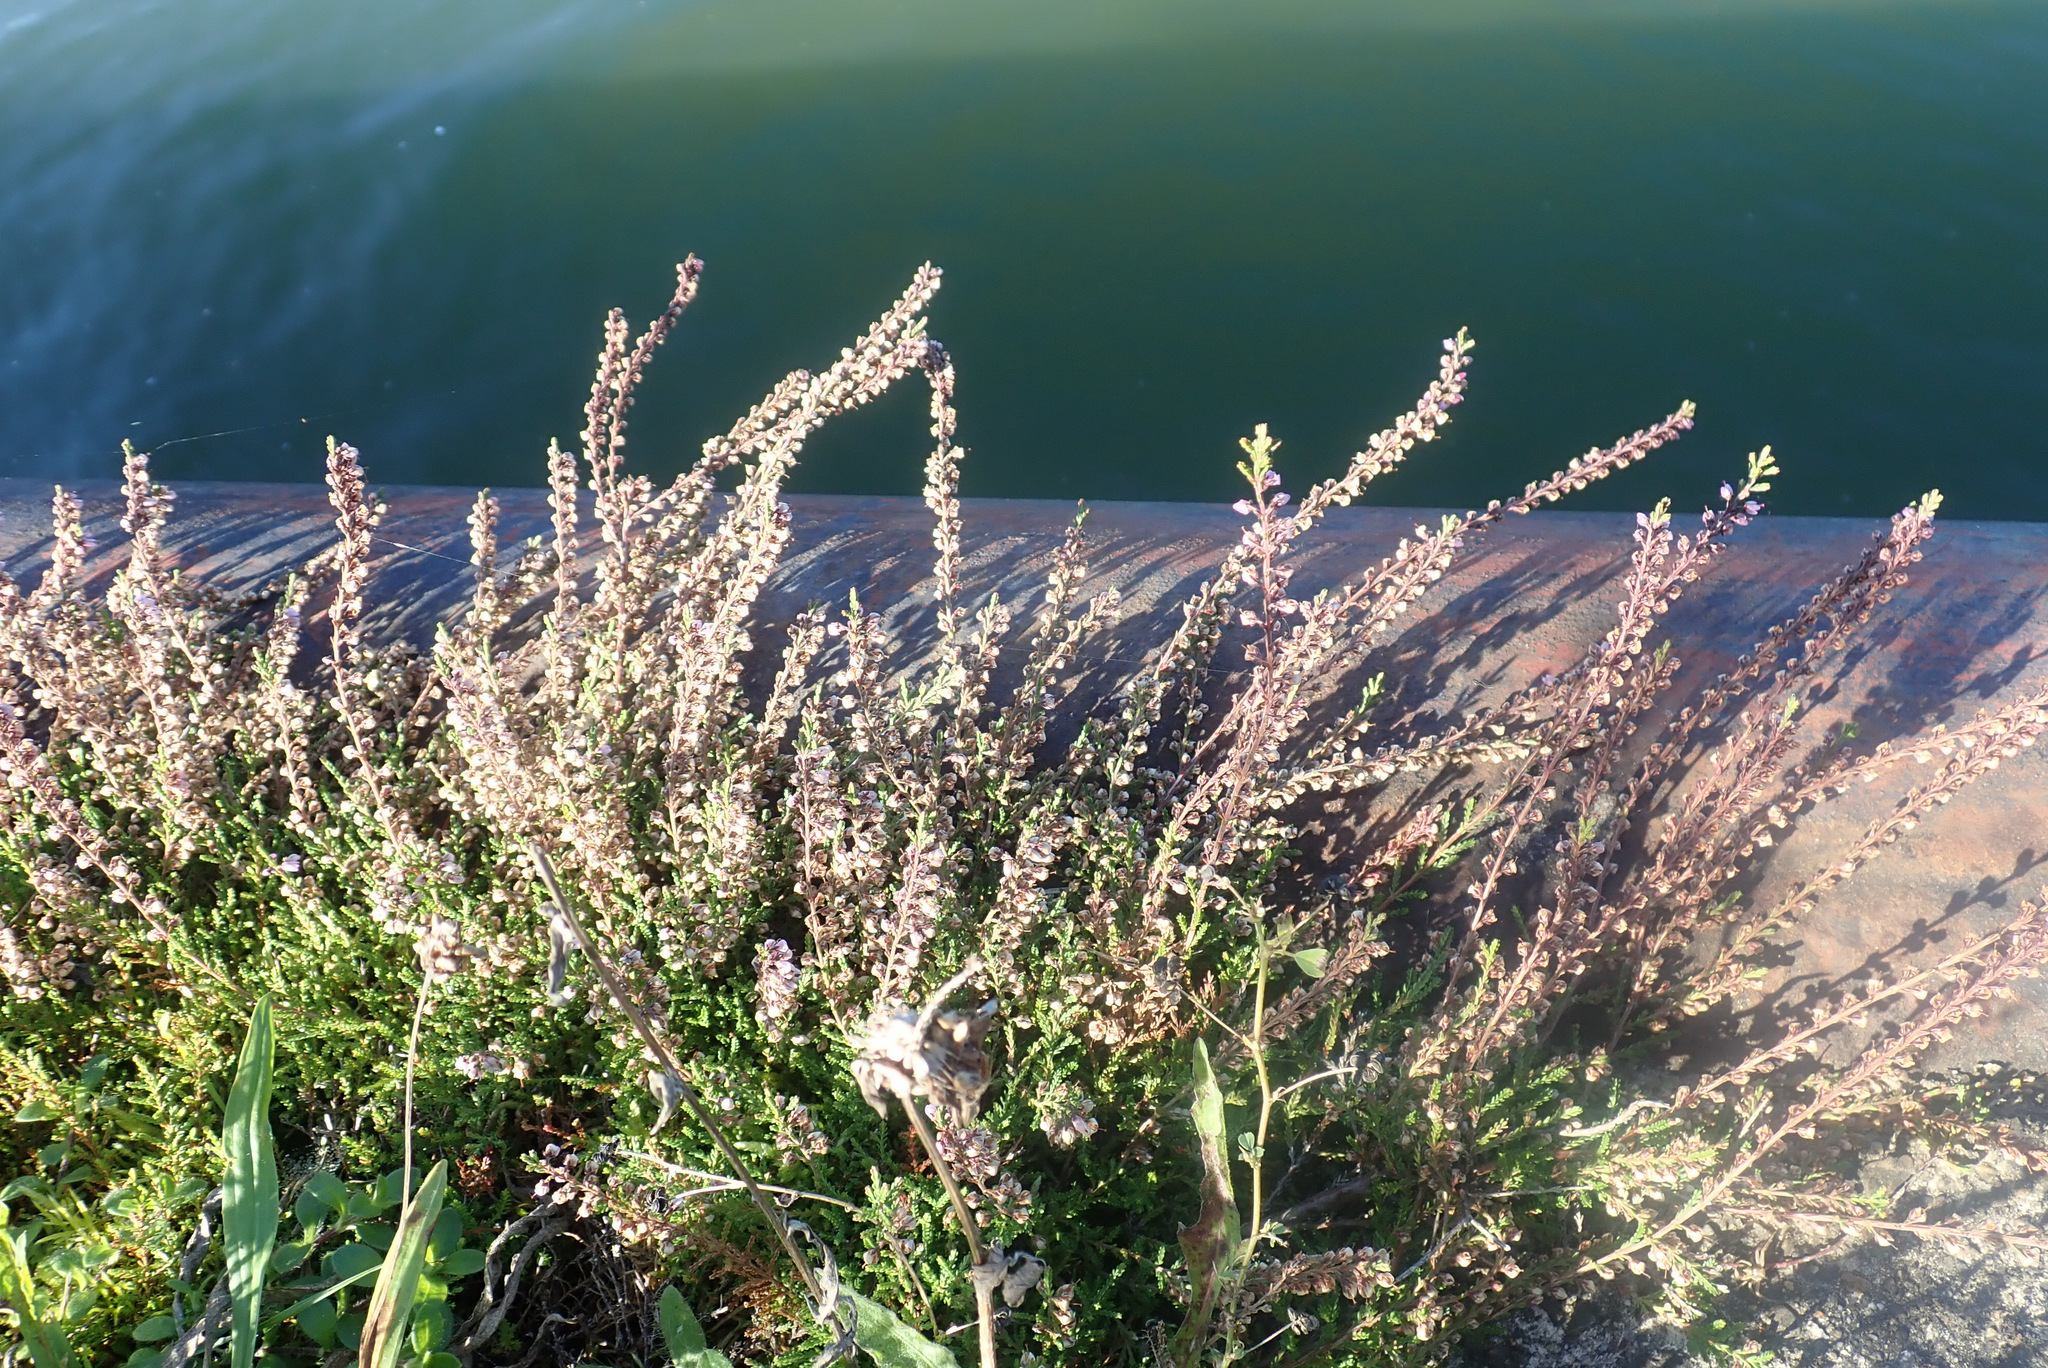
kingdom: Plantae
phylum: Tracheophyta
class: Magnoliopsida
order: Ericales
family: Ericaceae
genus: Calluna
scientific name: Calluna vulgaris
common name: Heather
